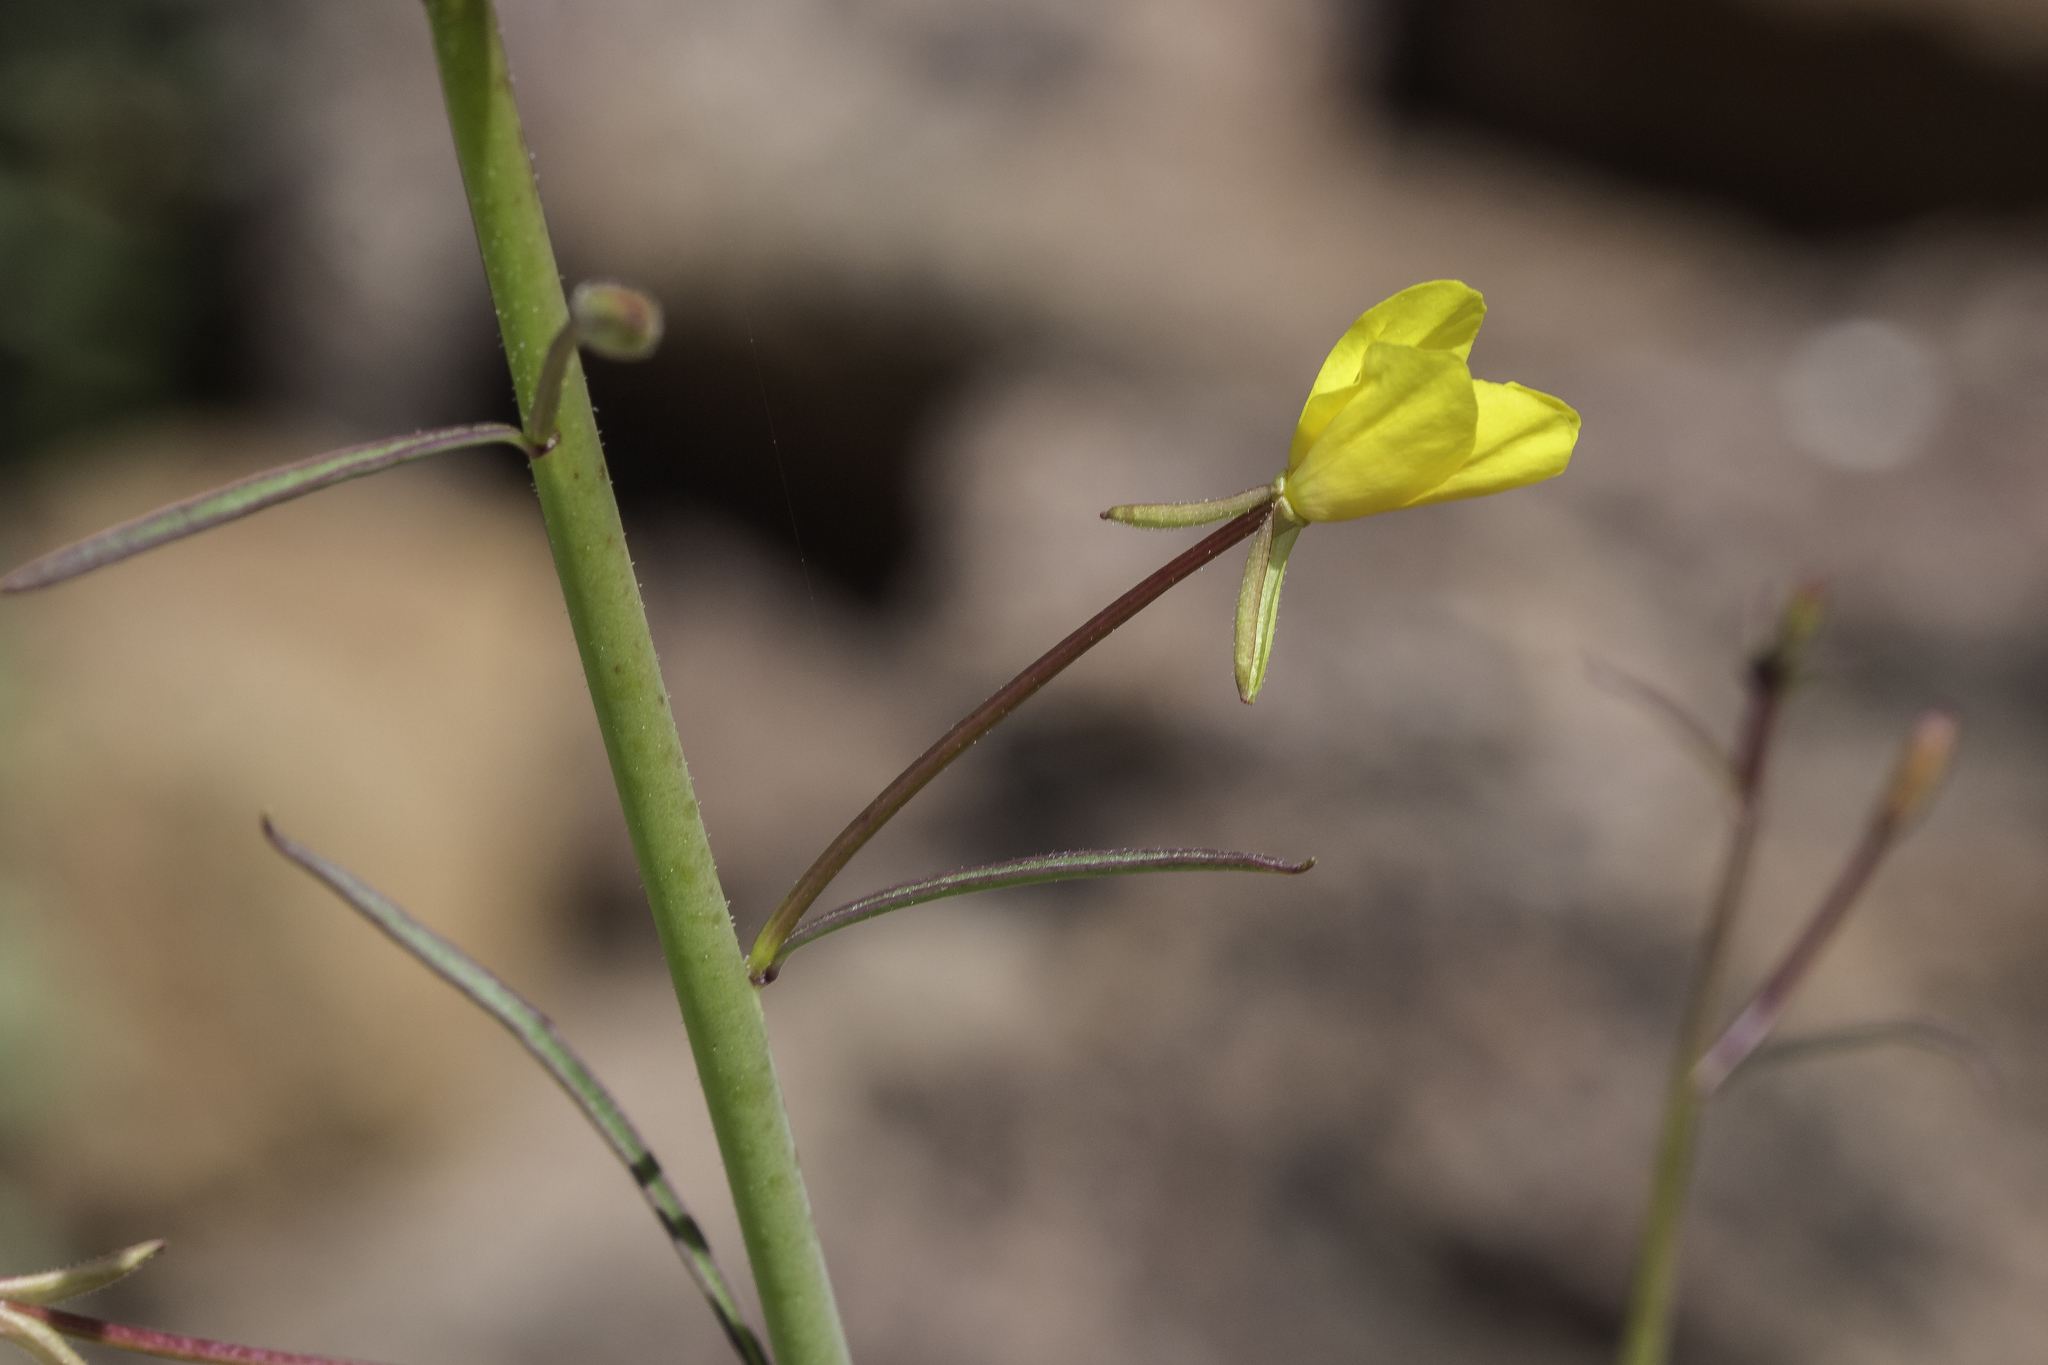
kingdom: Plantae
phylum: Tracheophyta
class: Magnoliopsida
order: Myrtales
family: Onagraceae
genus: Eulobus
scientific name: Eulobus californicus
